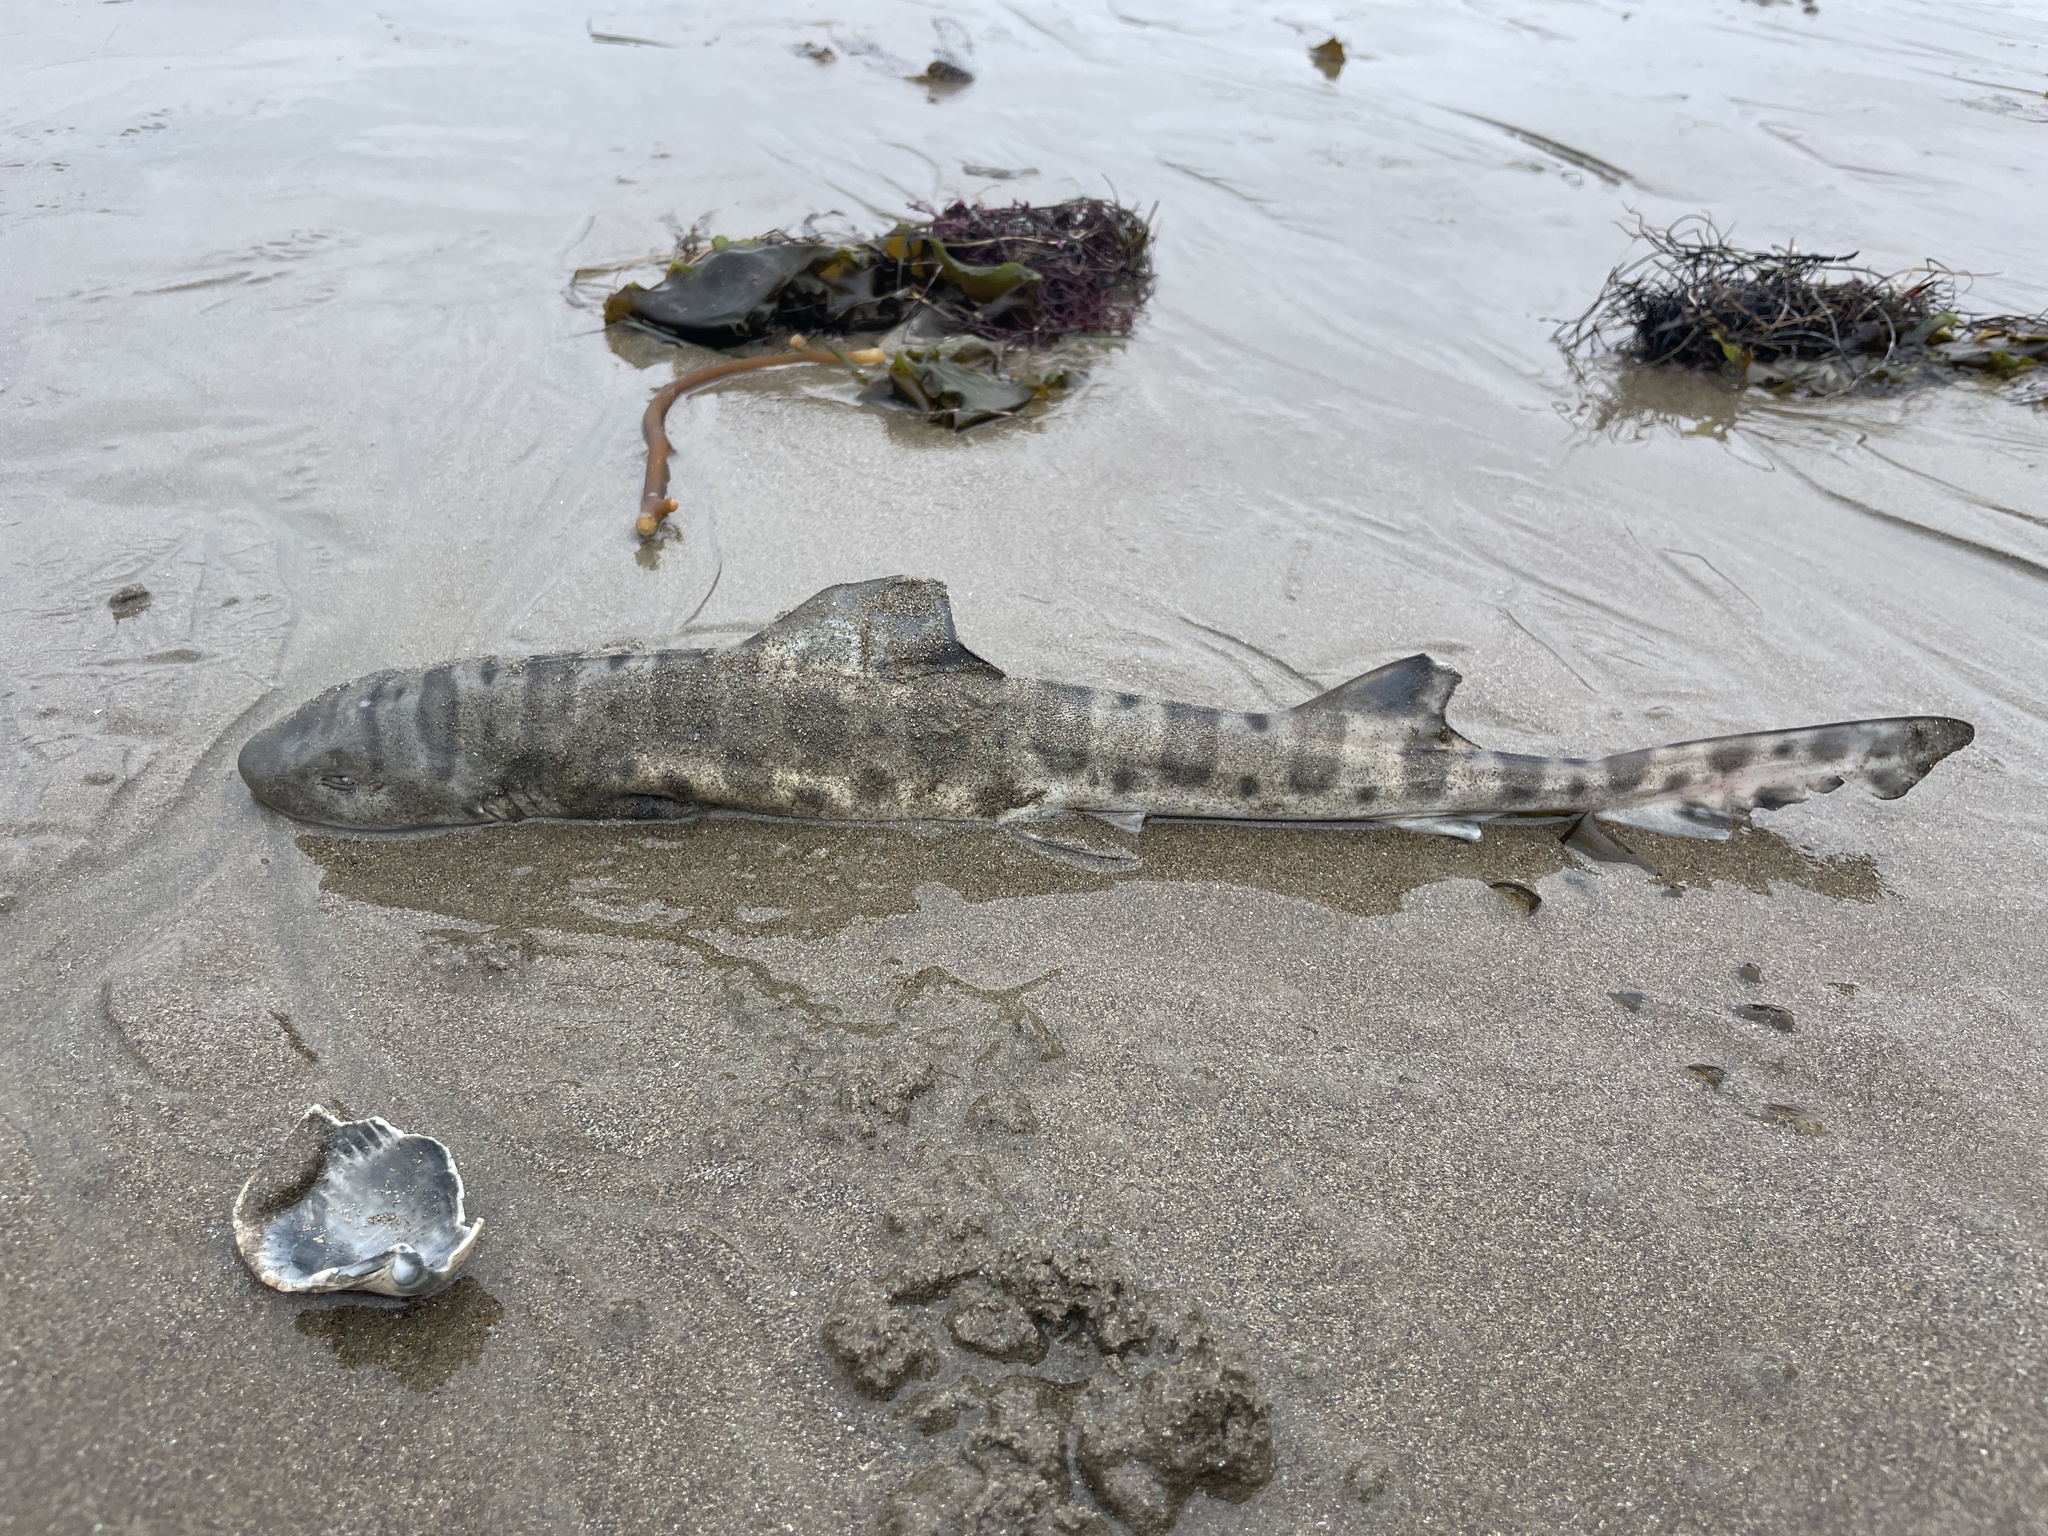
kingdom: Animalia
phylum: Chordata
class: Elasmobranchii
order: Carcharhiniformes
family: Triakidae
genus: Triakis
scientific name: Triakis semifasciata
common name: Leopard shark
